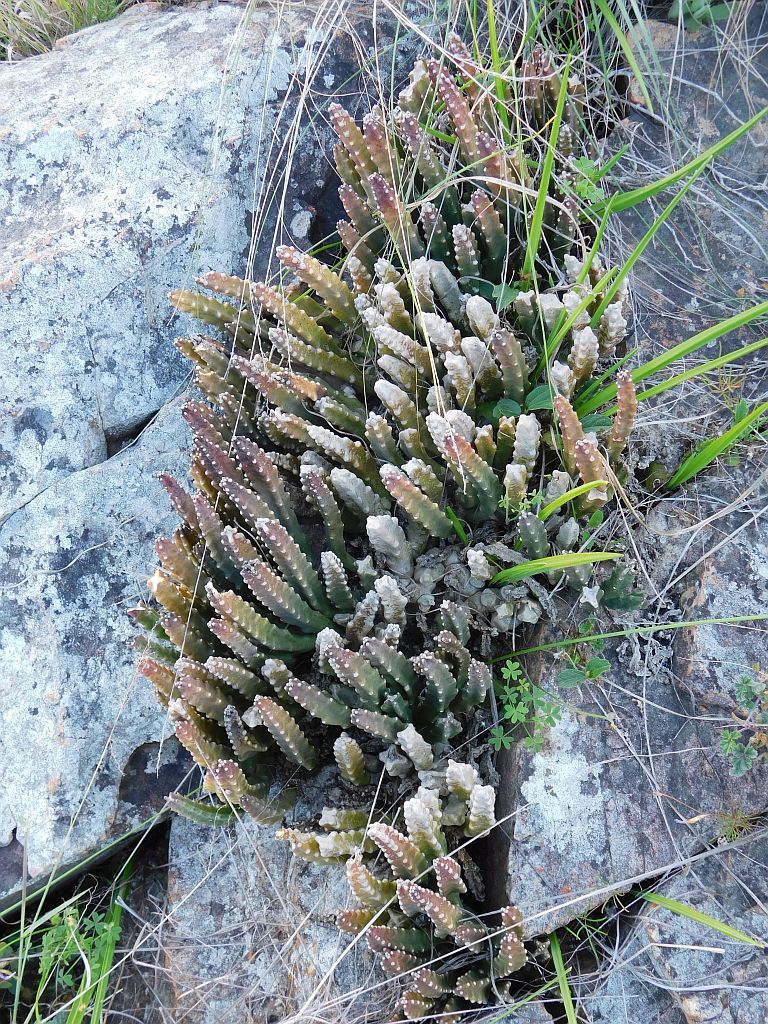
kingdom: Plantae
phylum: Tracheophyta
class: Magnoliopsida
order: Gentianales
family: Apocynaceae
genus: Ceropegia
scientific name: Ceropegia pulvinata
